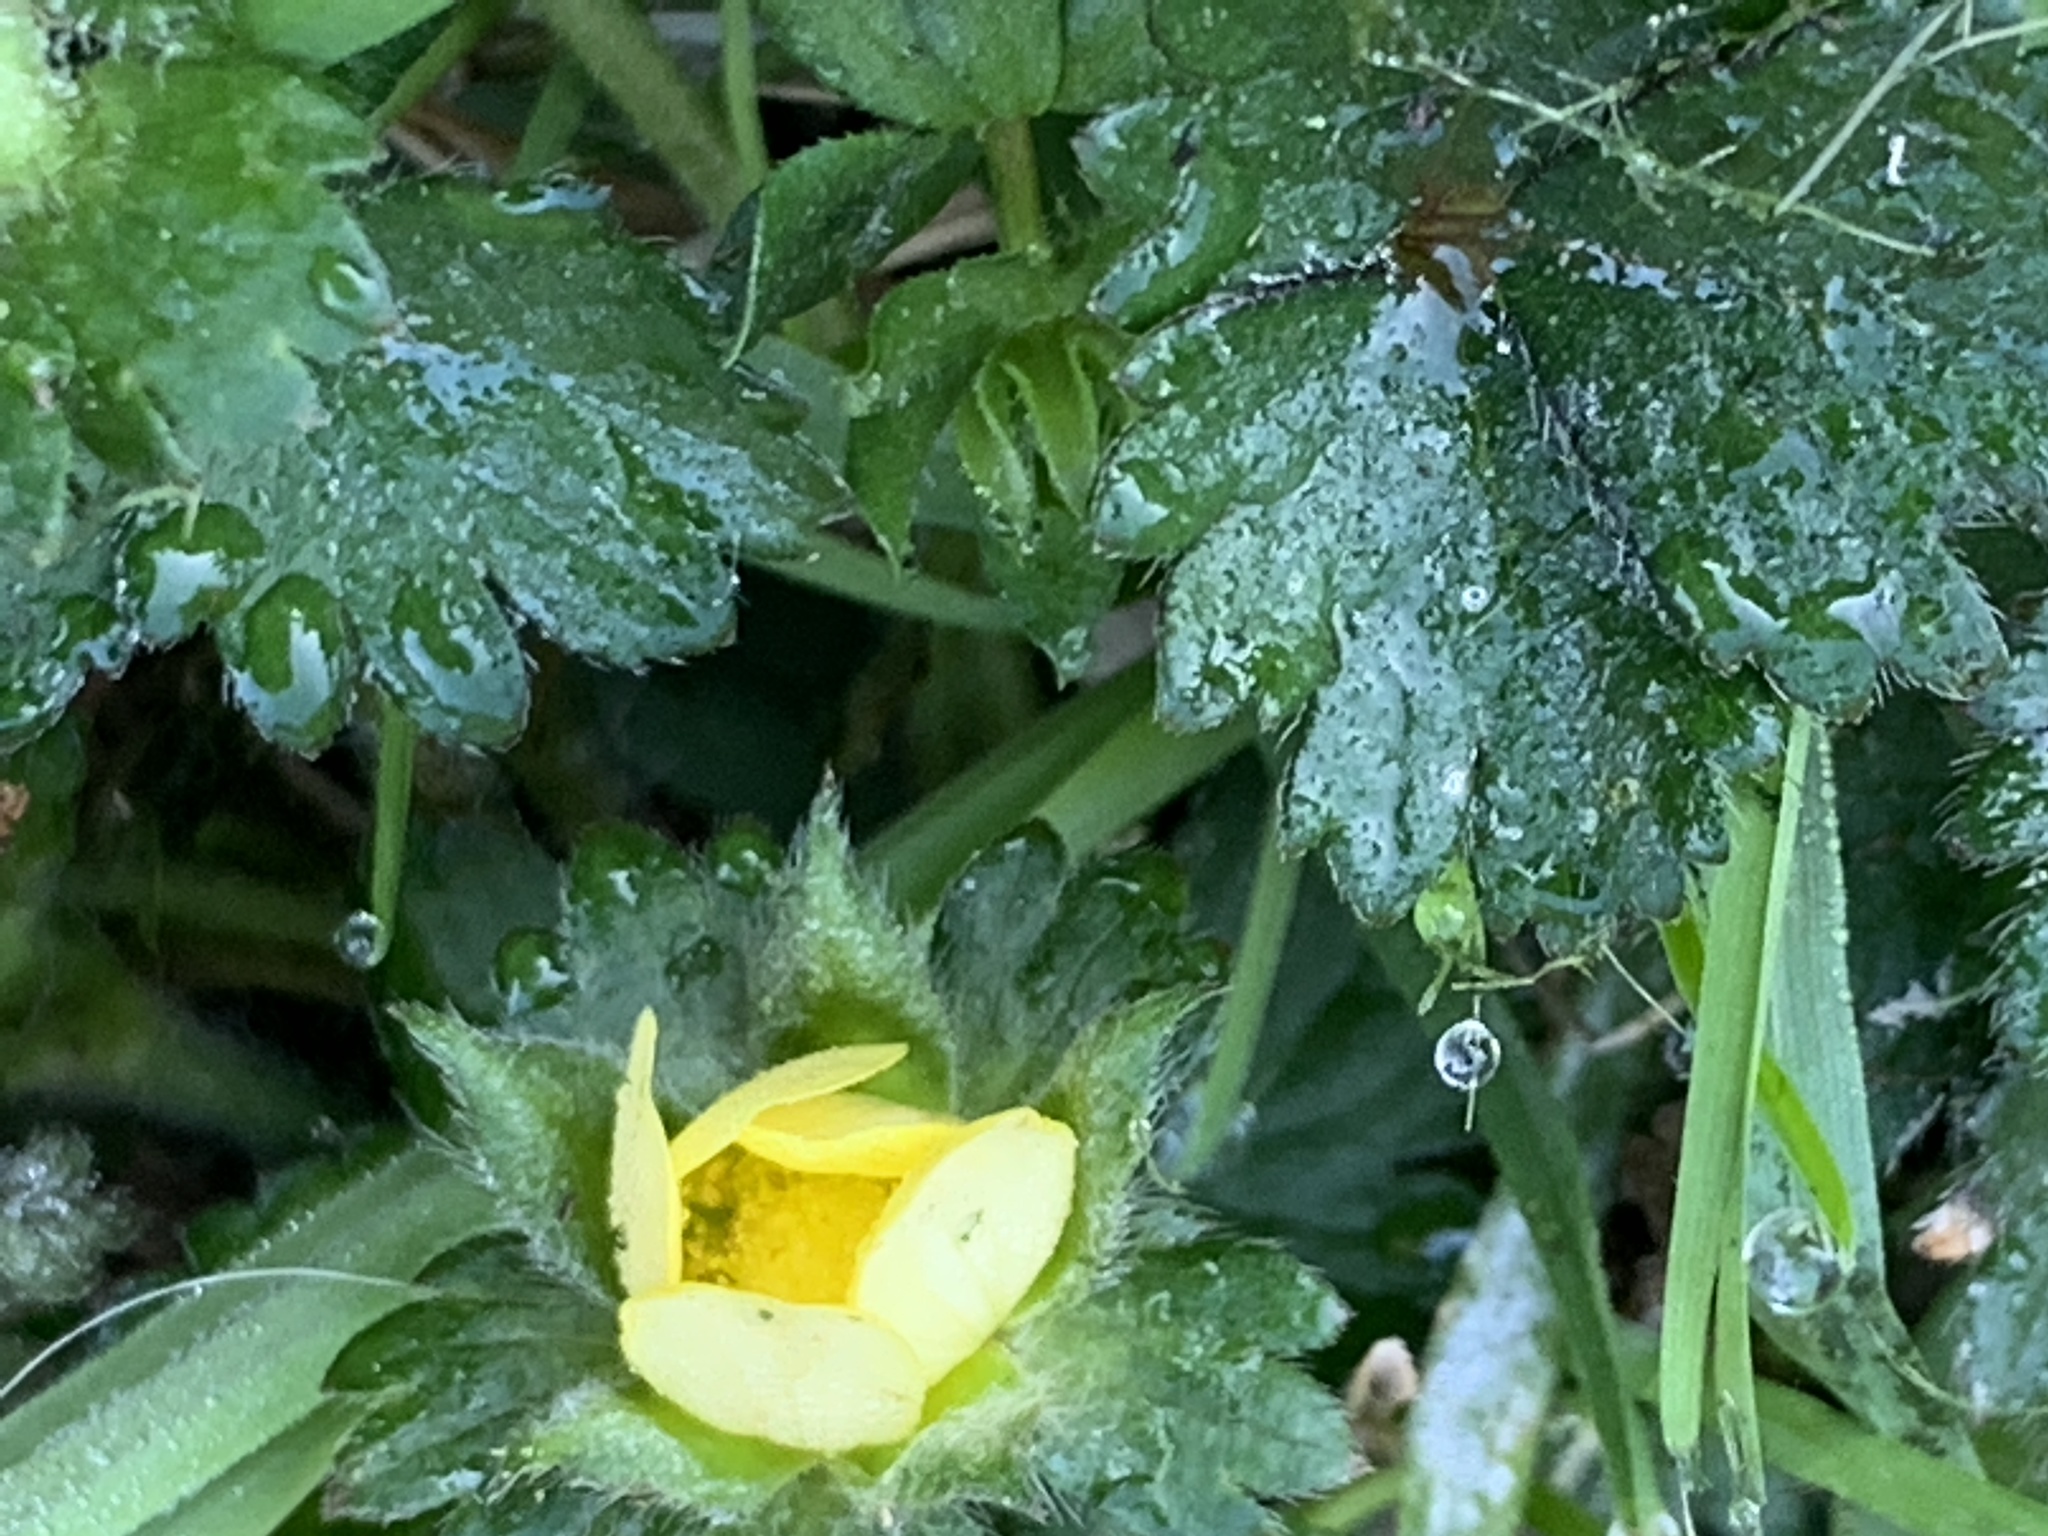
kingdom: Plantae
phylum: Tracheophyta
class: Magnoliopsida
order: Rosales
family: Rosaceae
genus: Potentilla
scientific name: Potentilla indica
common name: Yellow-flowered strawberry
